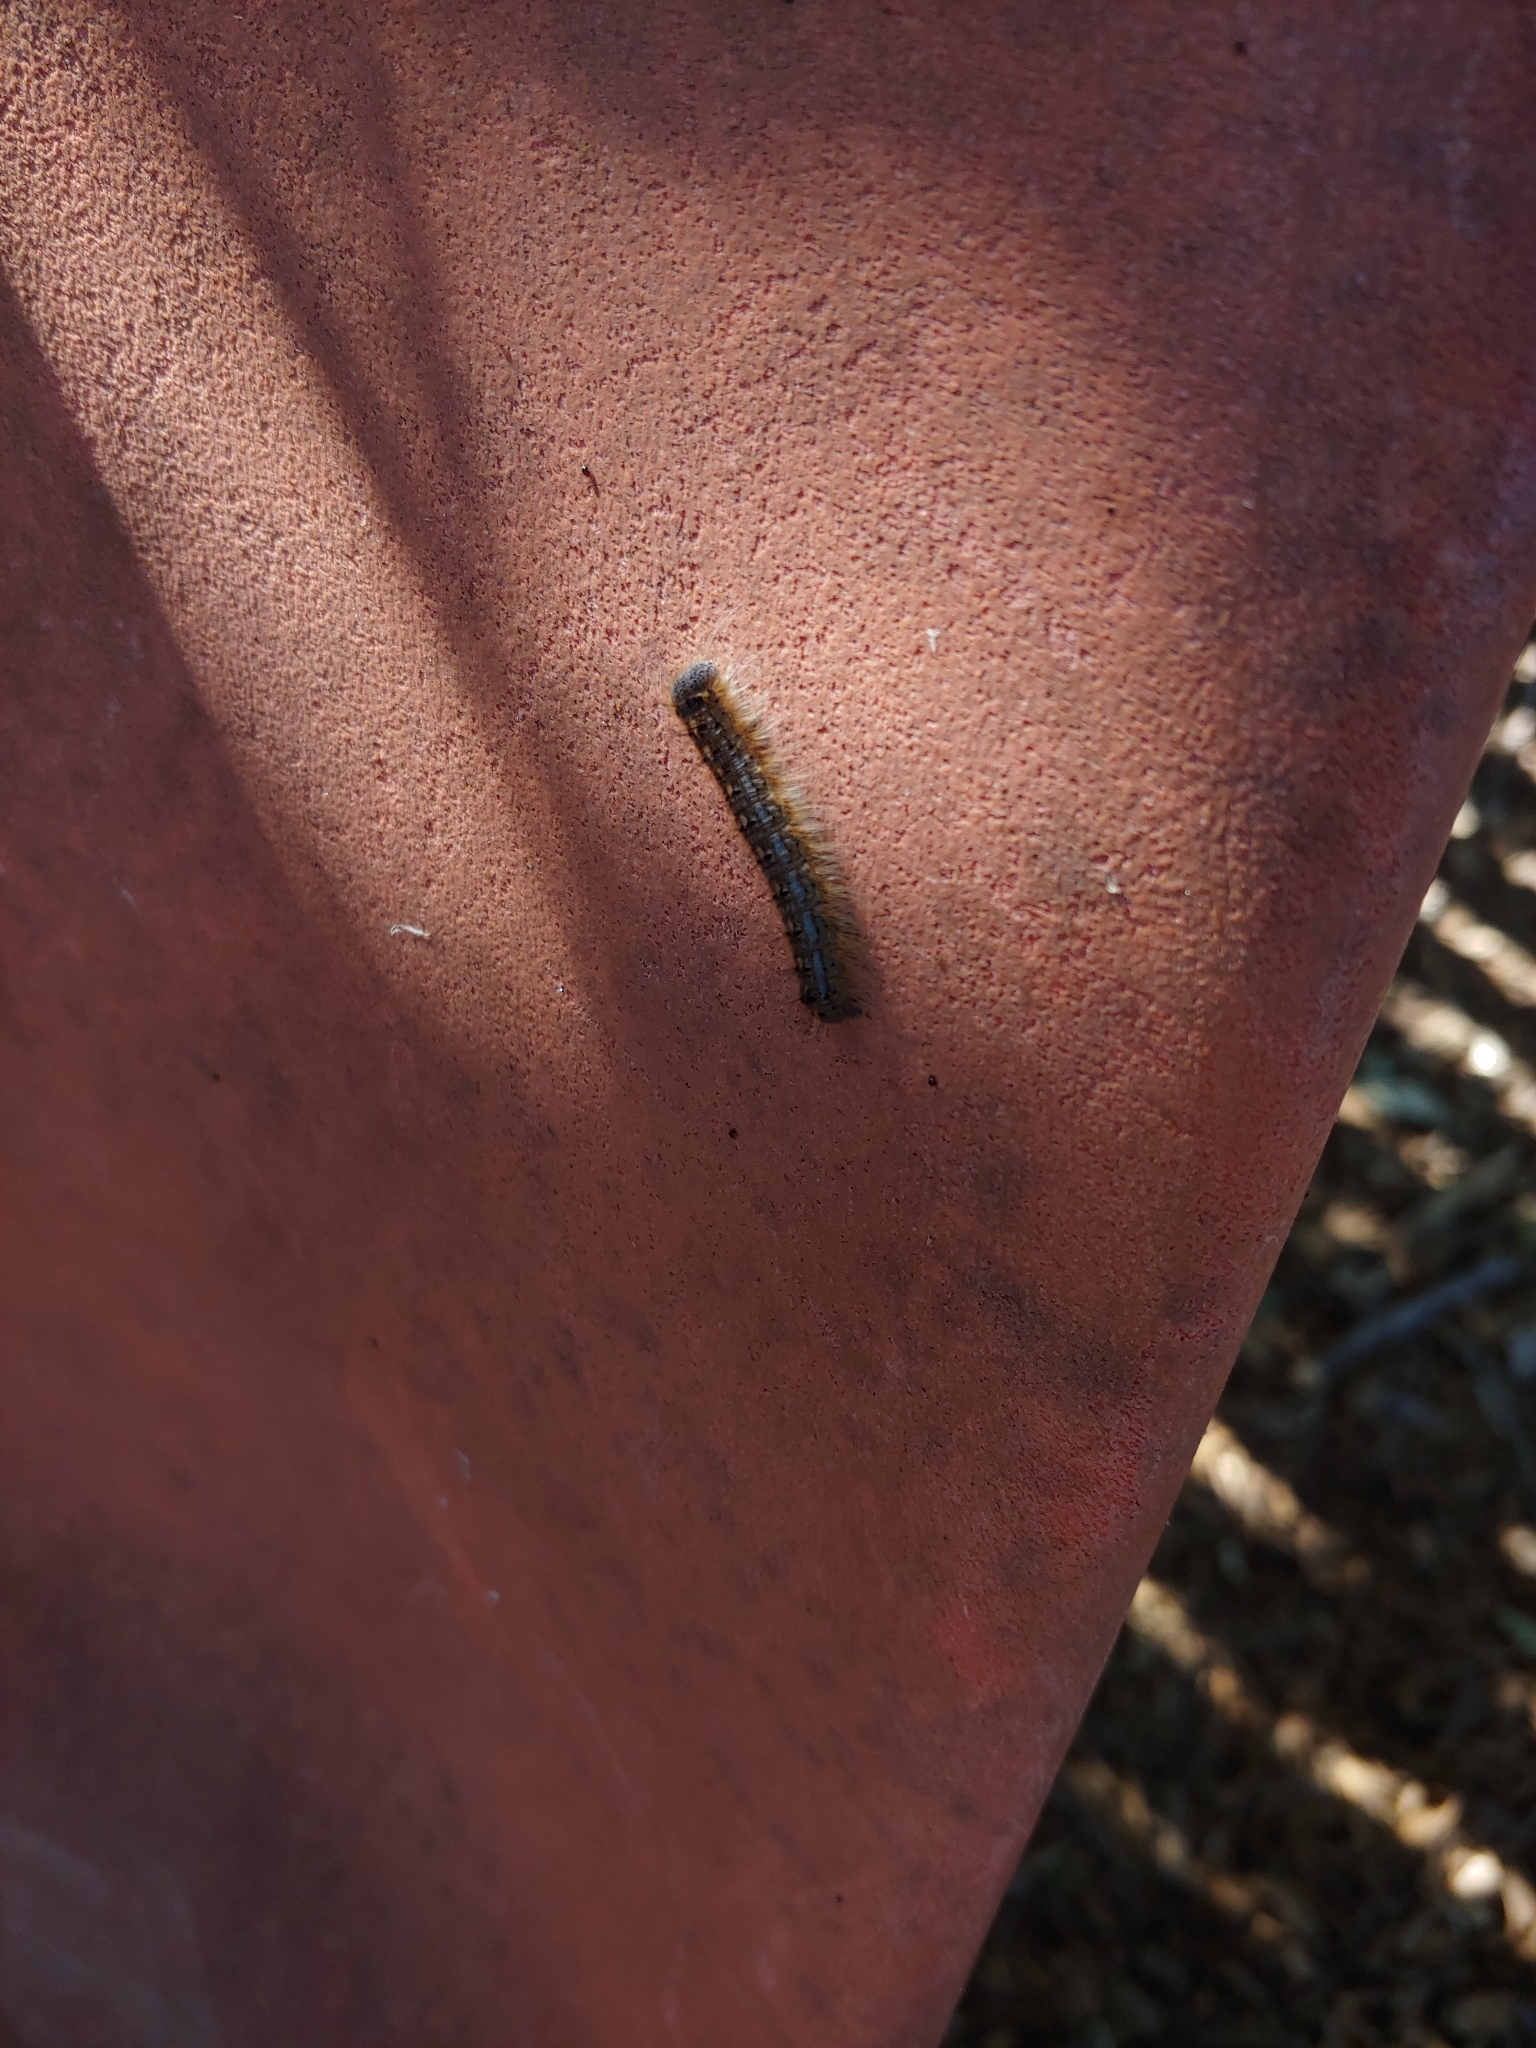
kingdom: Animalia
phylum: Arthropoda
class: Insecta
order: Lepidoptera
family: Lasiocampidae
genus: Malacosoma
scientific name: Malacosoma disstria
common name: Forest tent caterpillar
